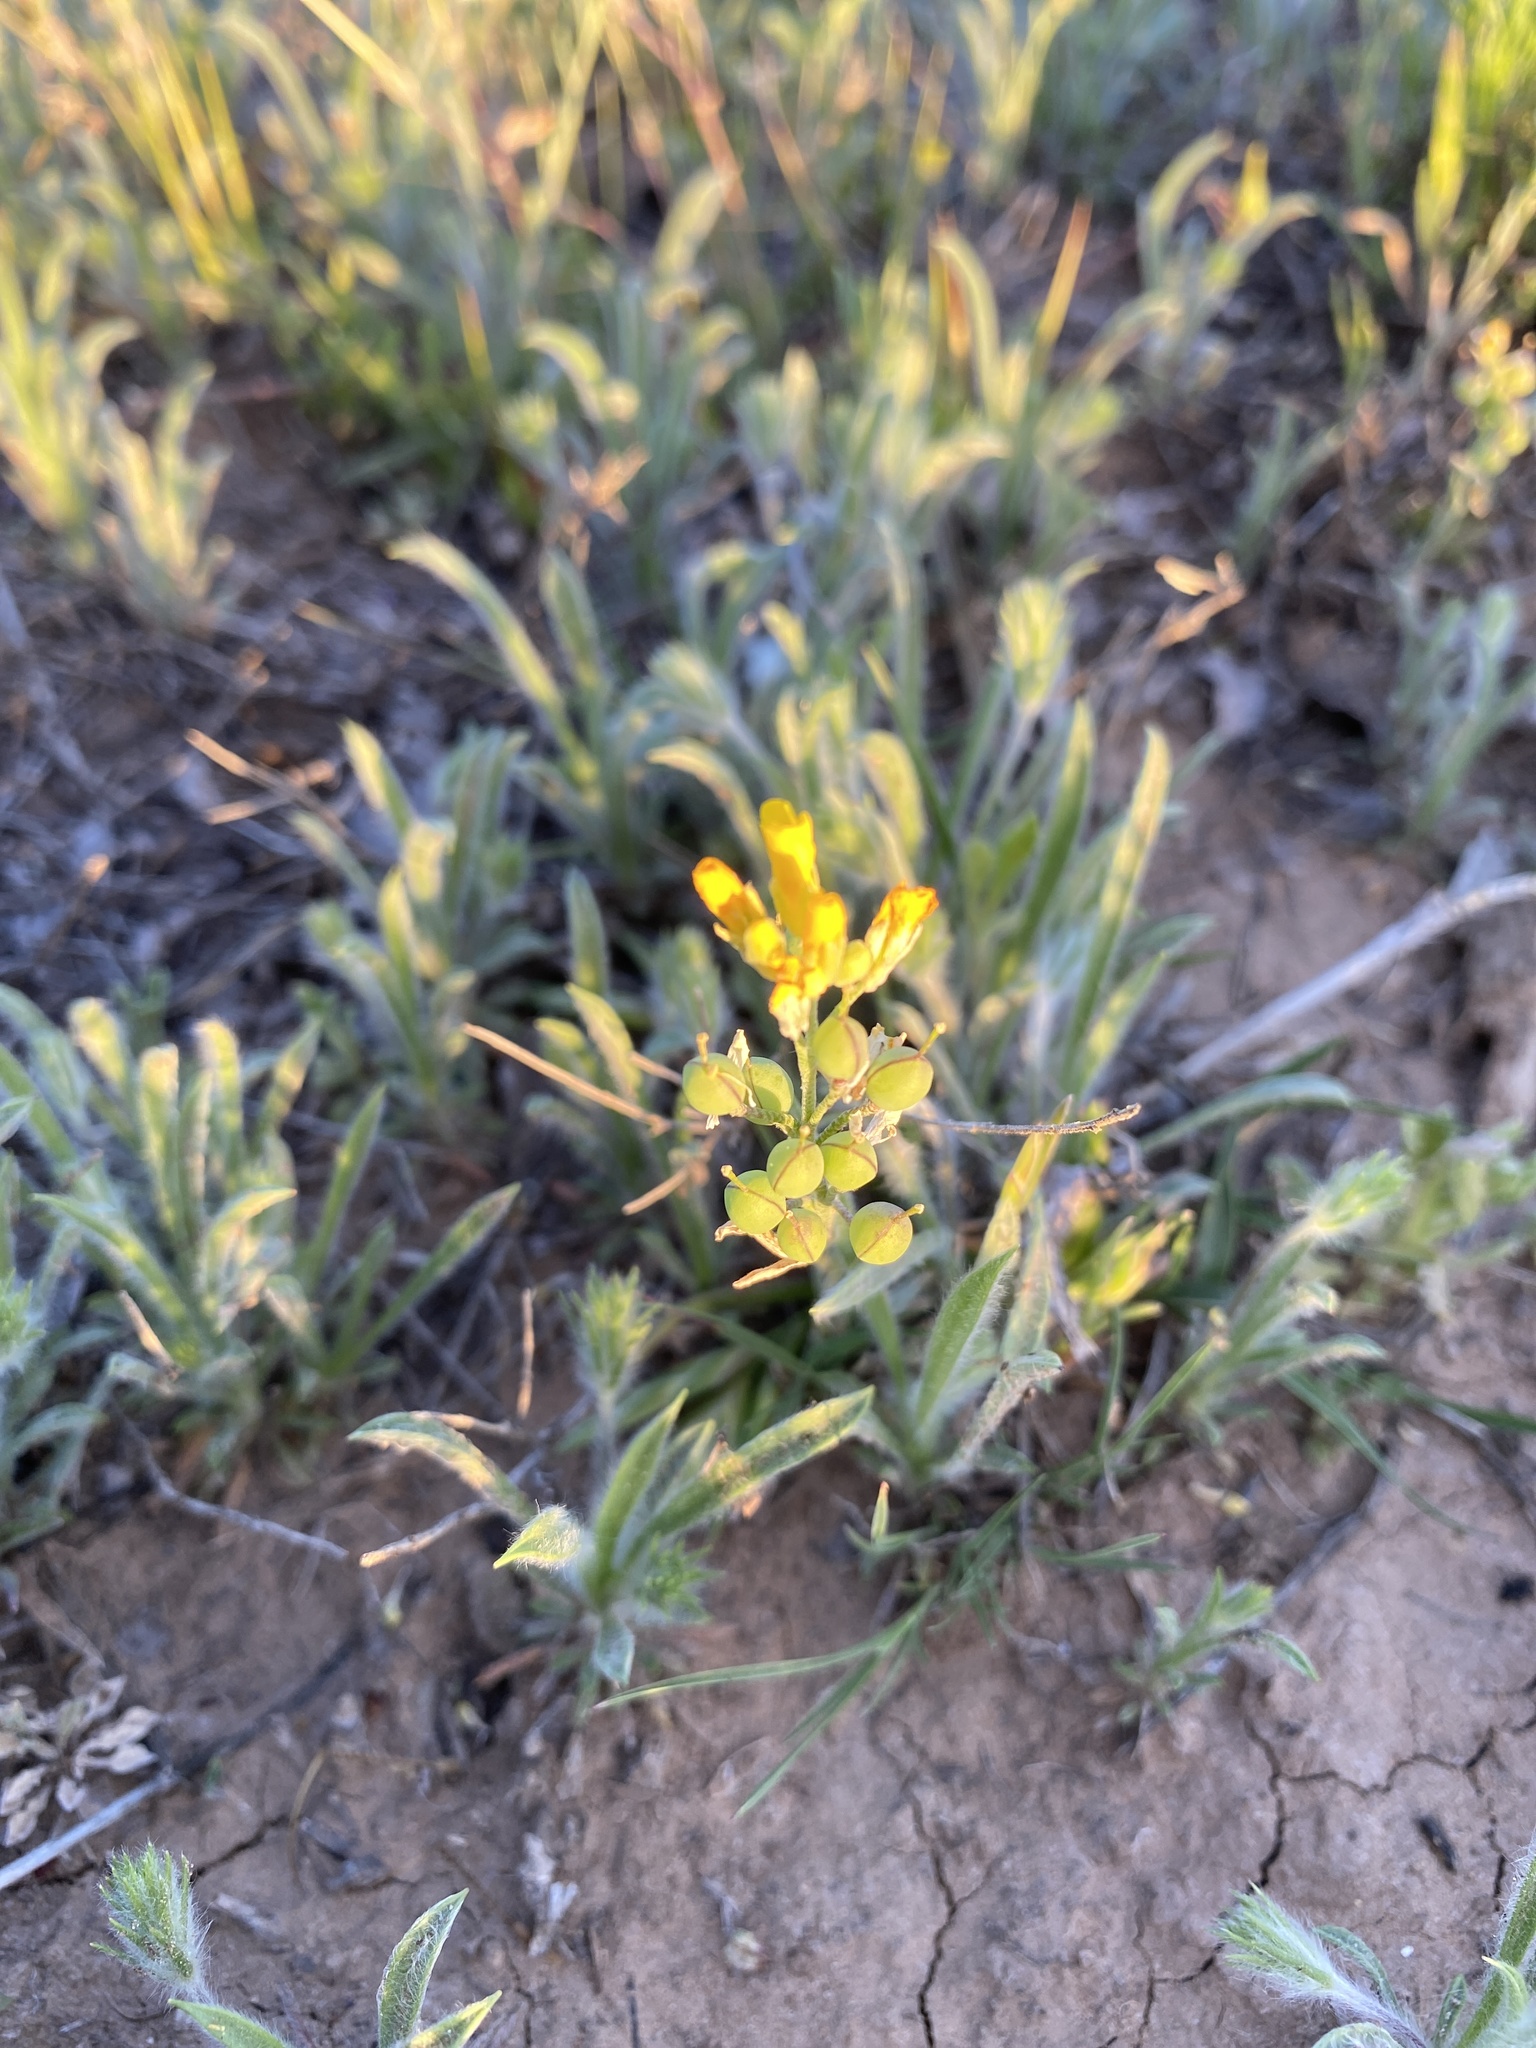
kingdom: Plantae
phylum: Tracheophyta
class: Magnoliopsida
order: Brassicales
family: Brassicaceae
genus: Physaria
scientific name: Physaria gordonii
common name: Gordon's bladderpod
